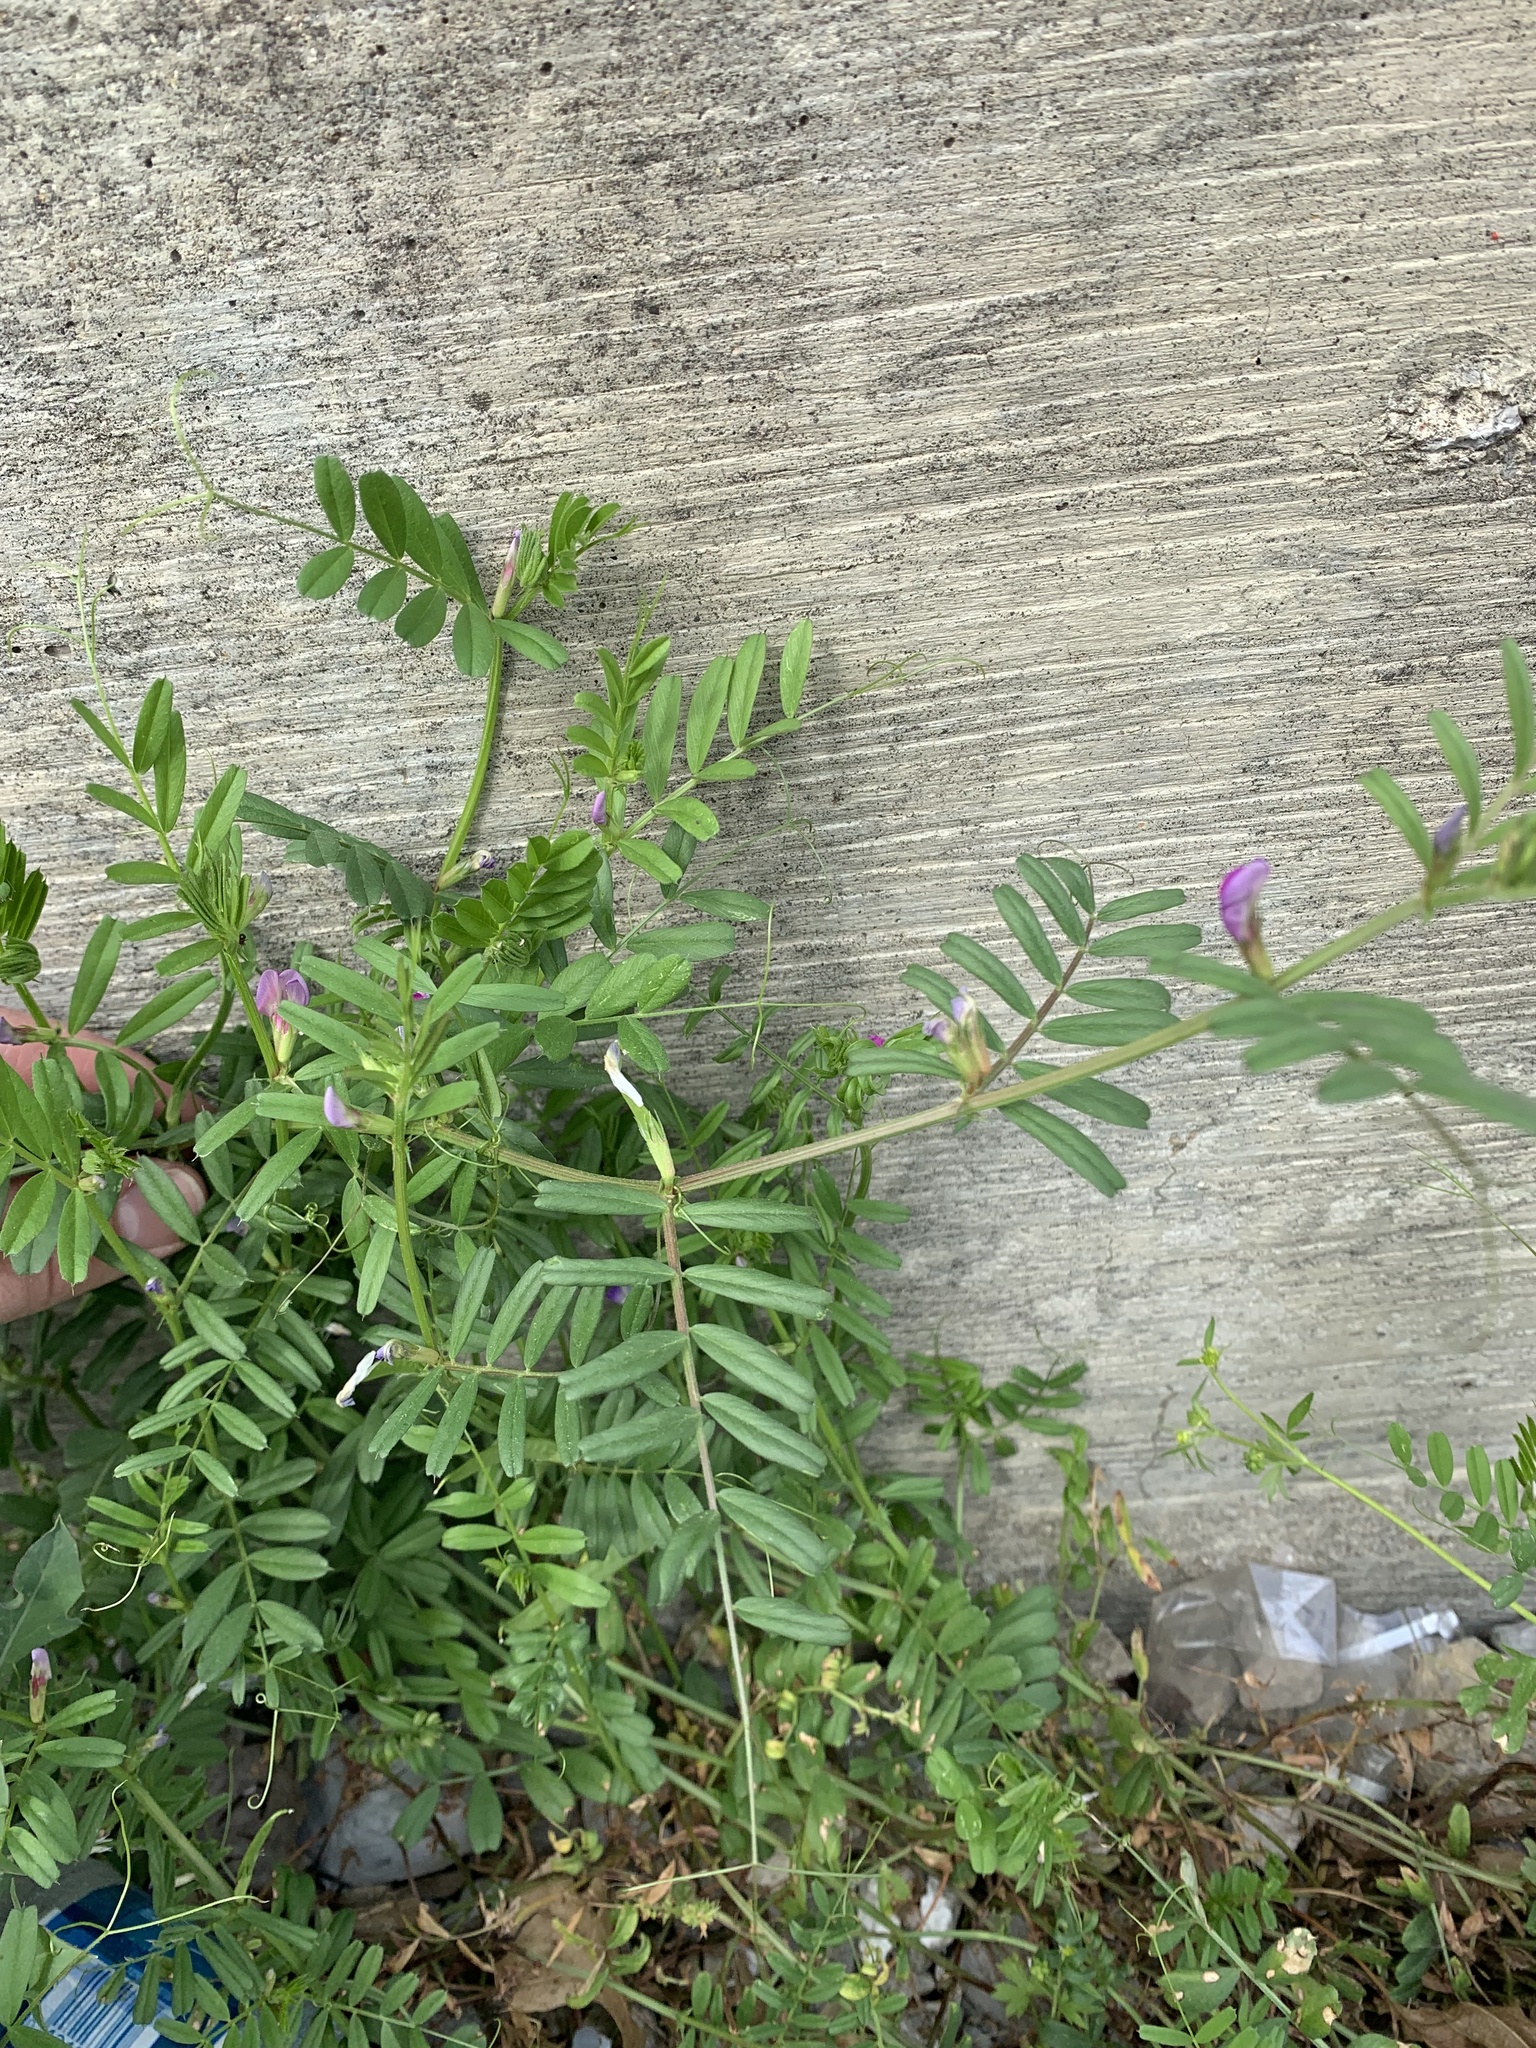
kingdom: Plantae
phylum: Tracheophyta
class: Magnoliopsida
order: Fabales
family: Fabaceae
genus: Vicia
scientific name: Vicia sativa
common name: Garden vetch
